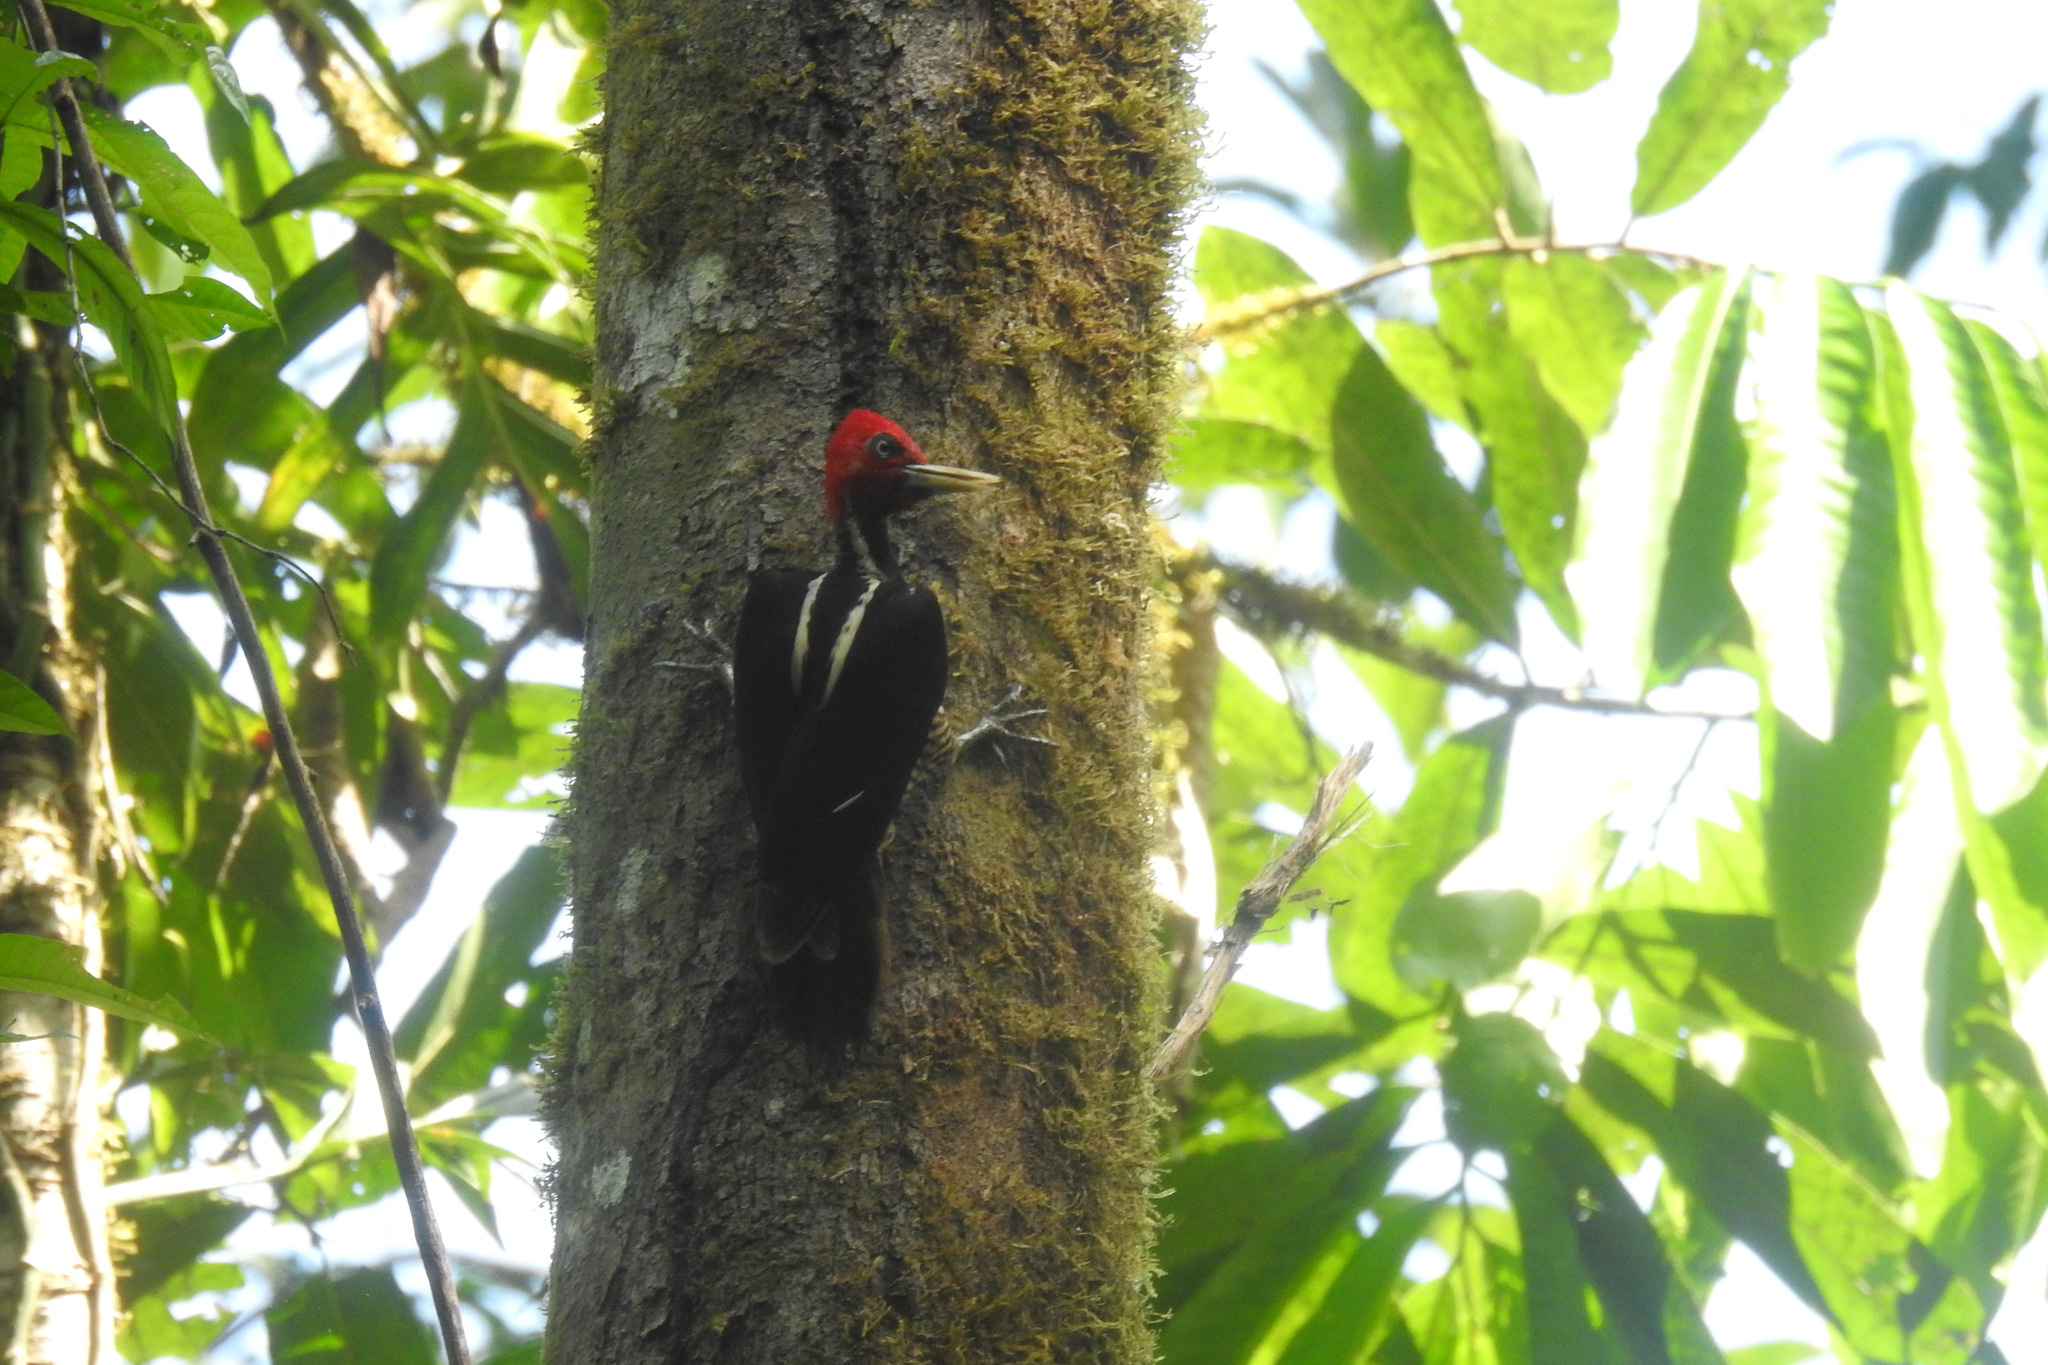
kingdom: Animalia
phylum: Chordata
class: Aves
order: Piciformes
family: Picidae
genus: Campephilus
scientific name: Campephilus guatemalensis
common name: Pale-billed woodpecker
